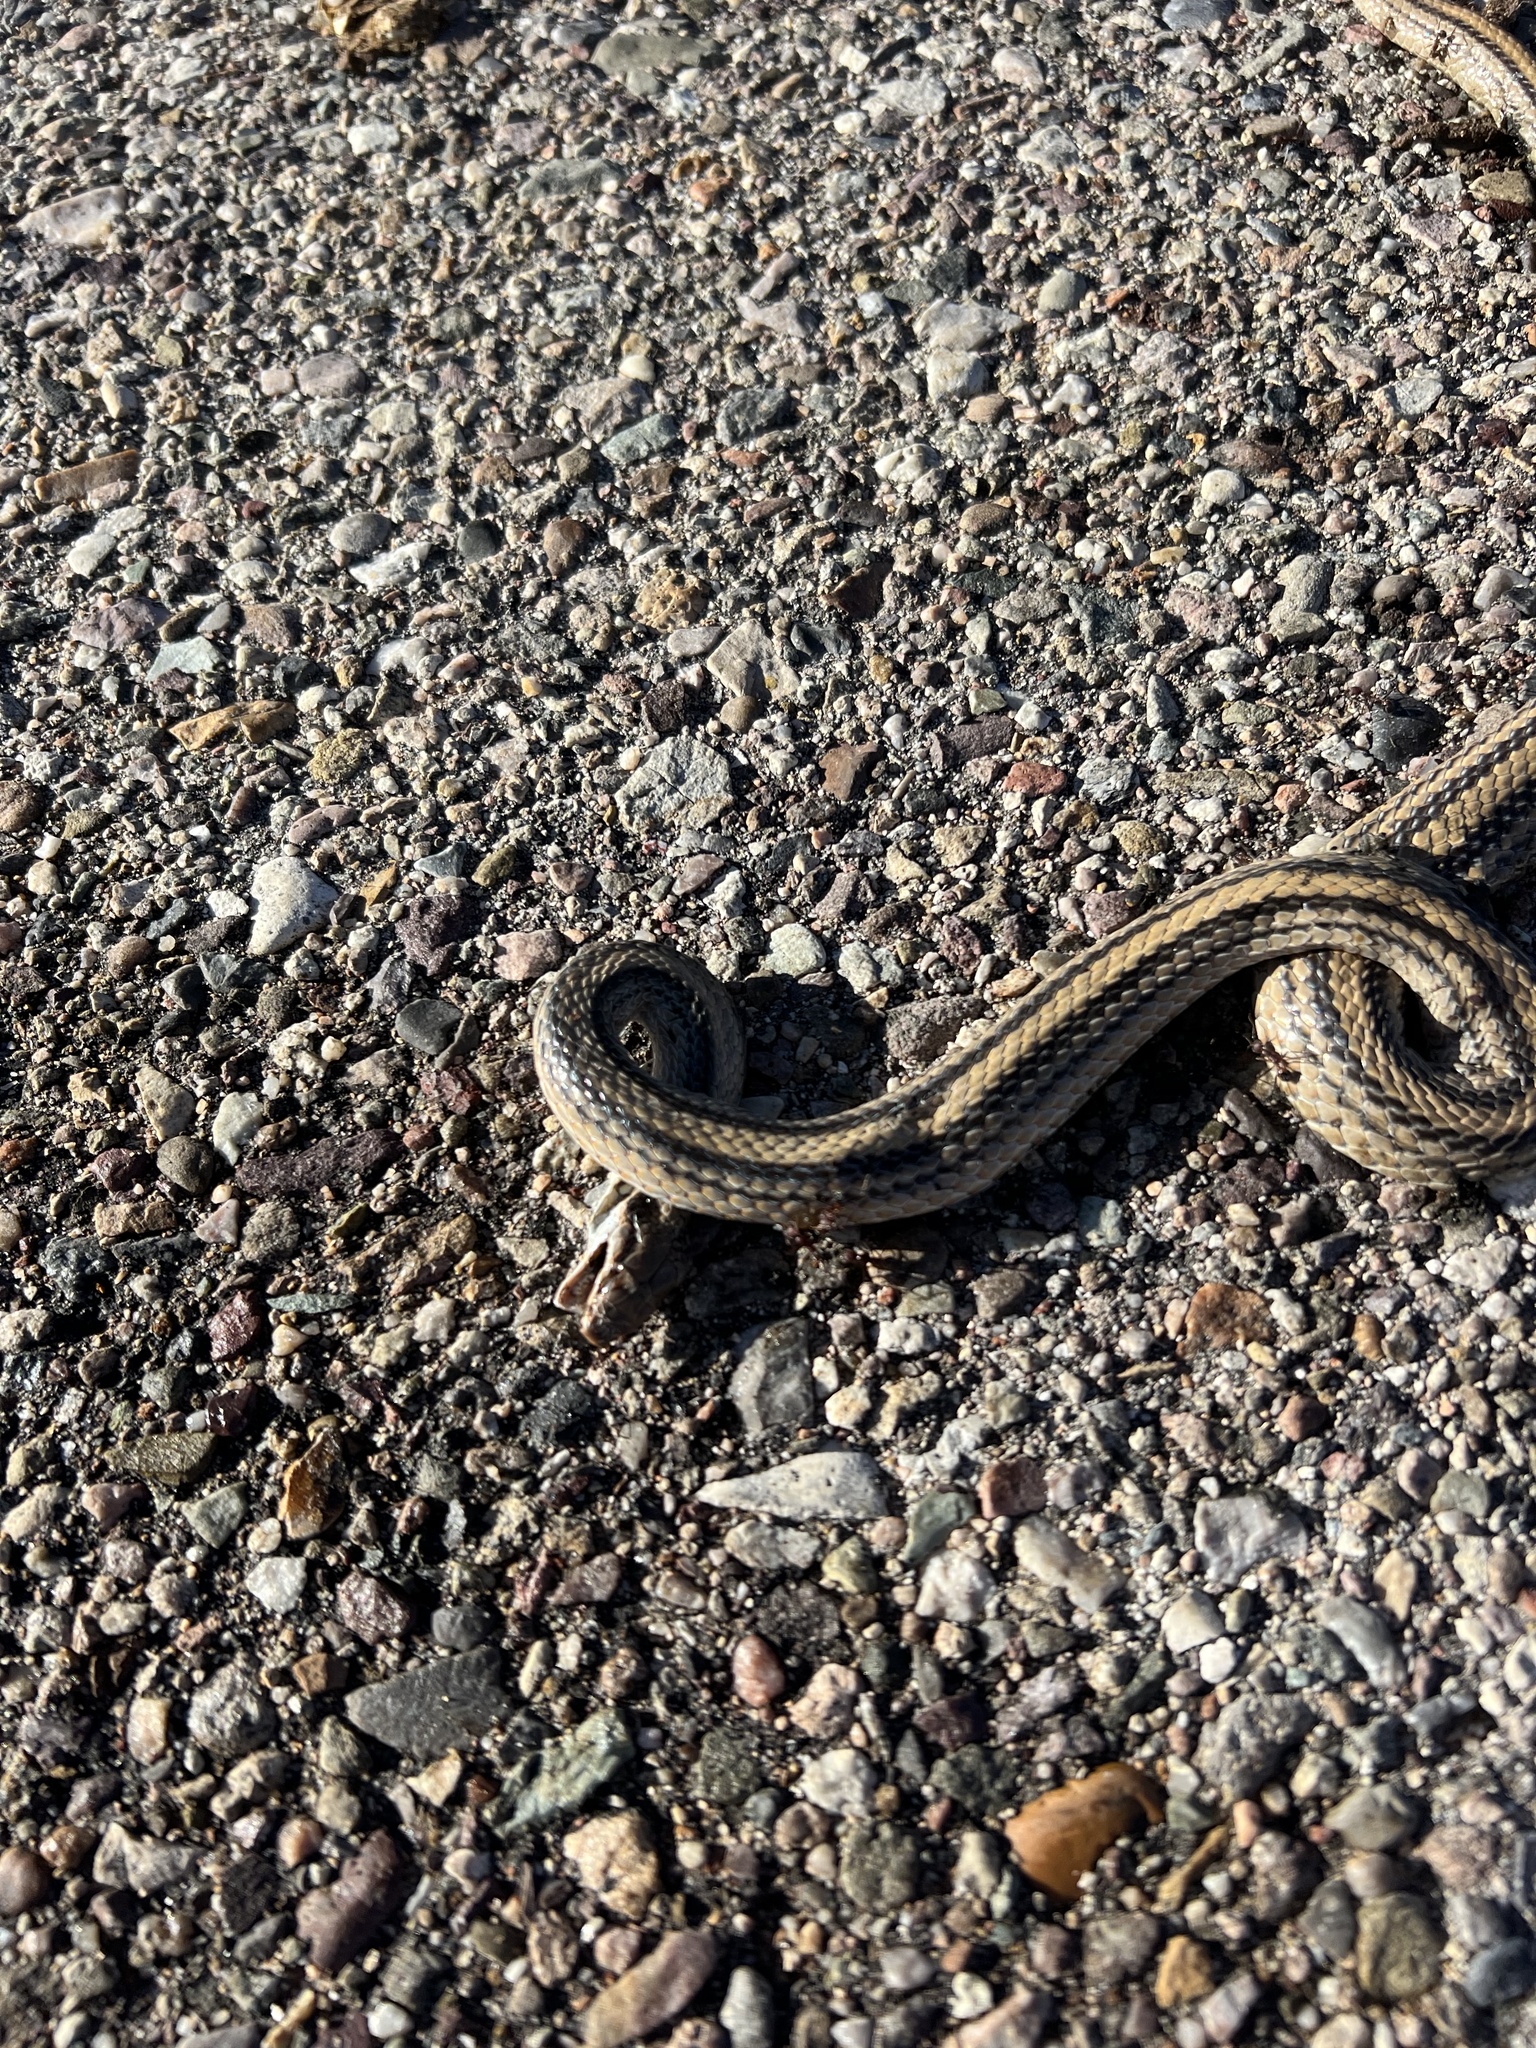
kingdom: Animalia
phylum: Chordata
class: Squamata
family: Colubridae
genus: Salvadora
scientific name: Salvadora deserticola
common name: Big bend patchnose snake
